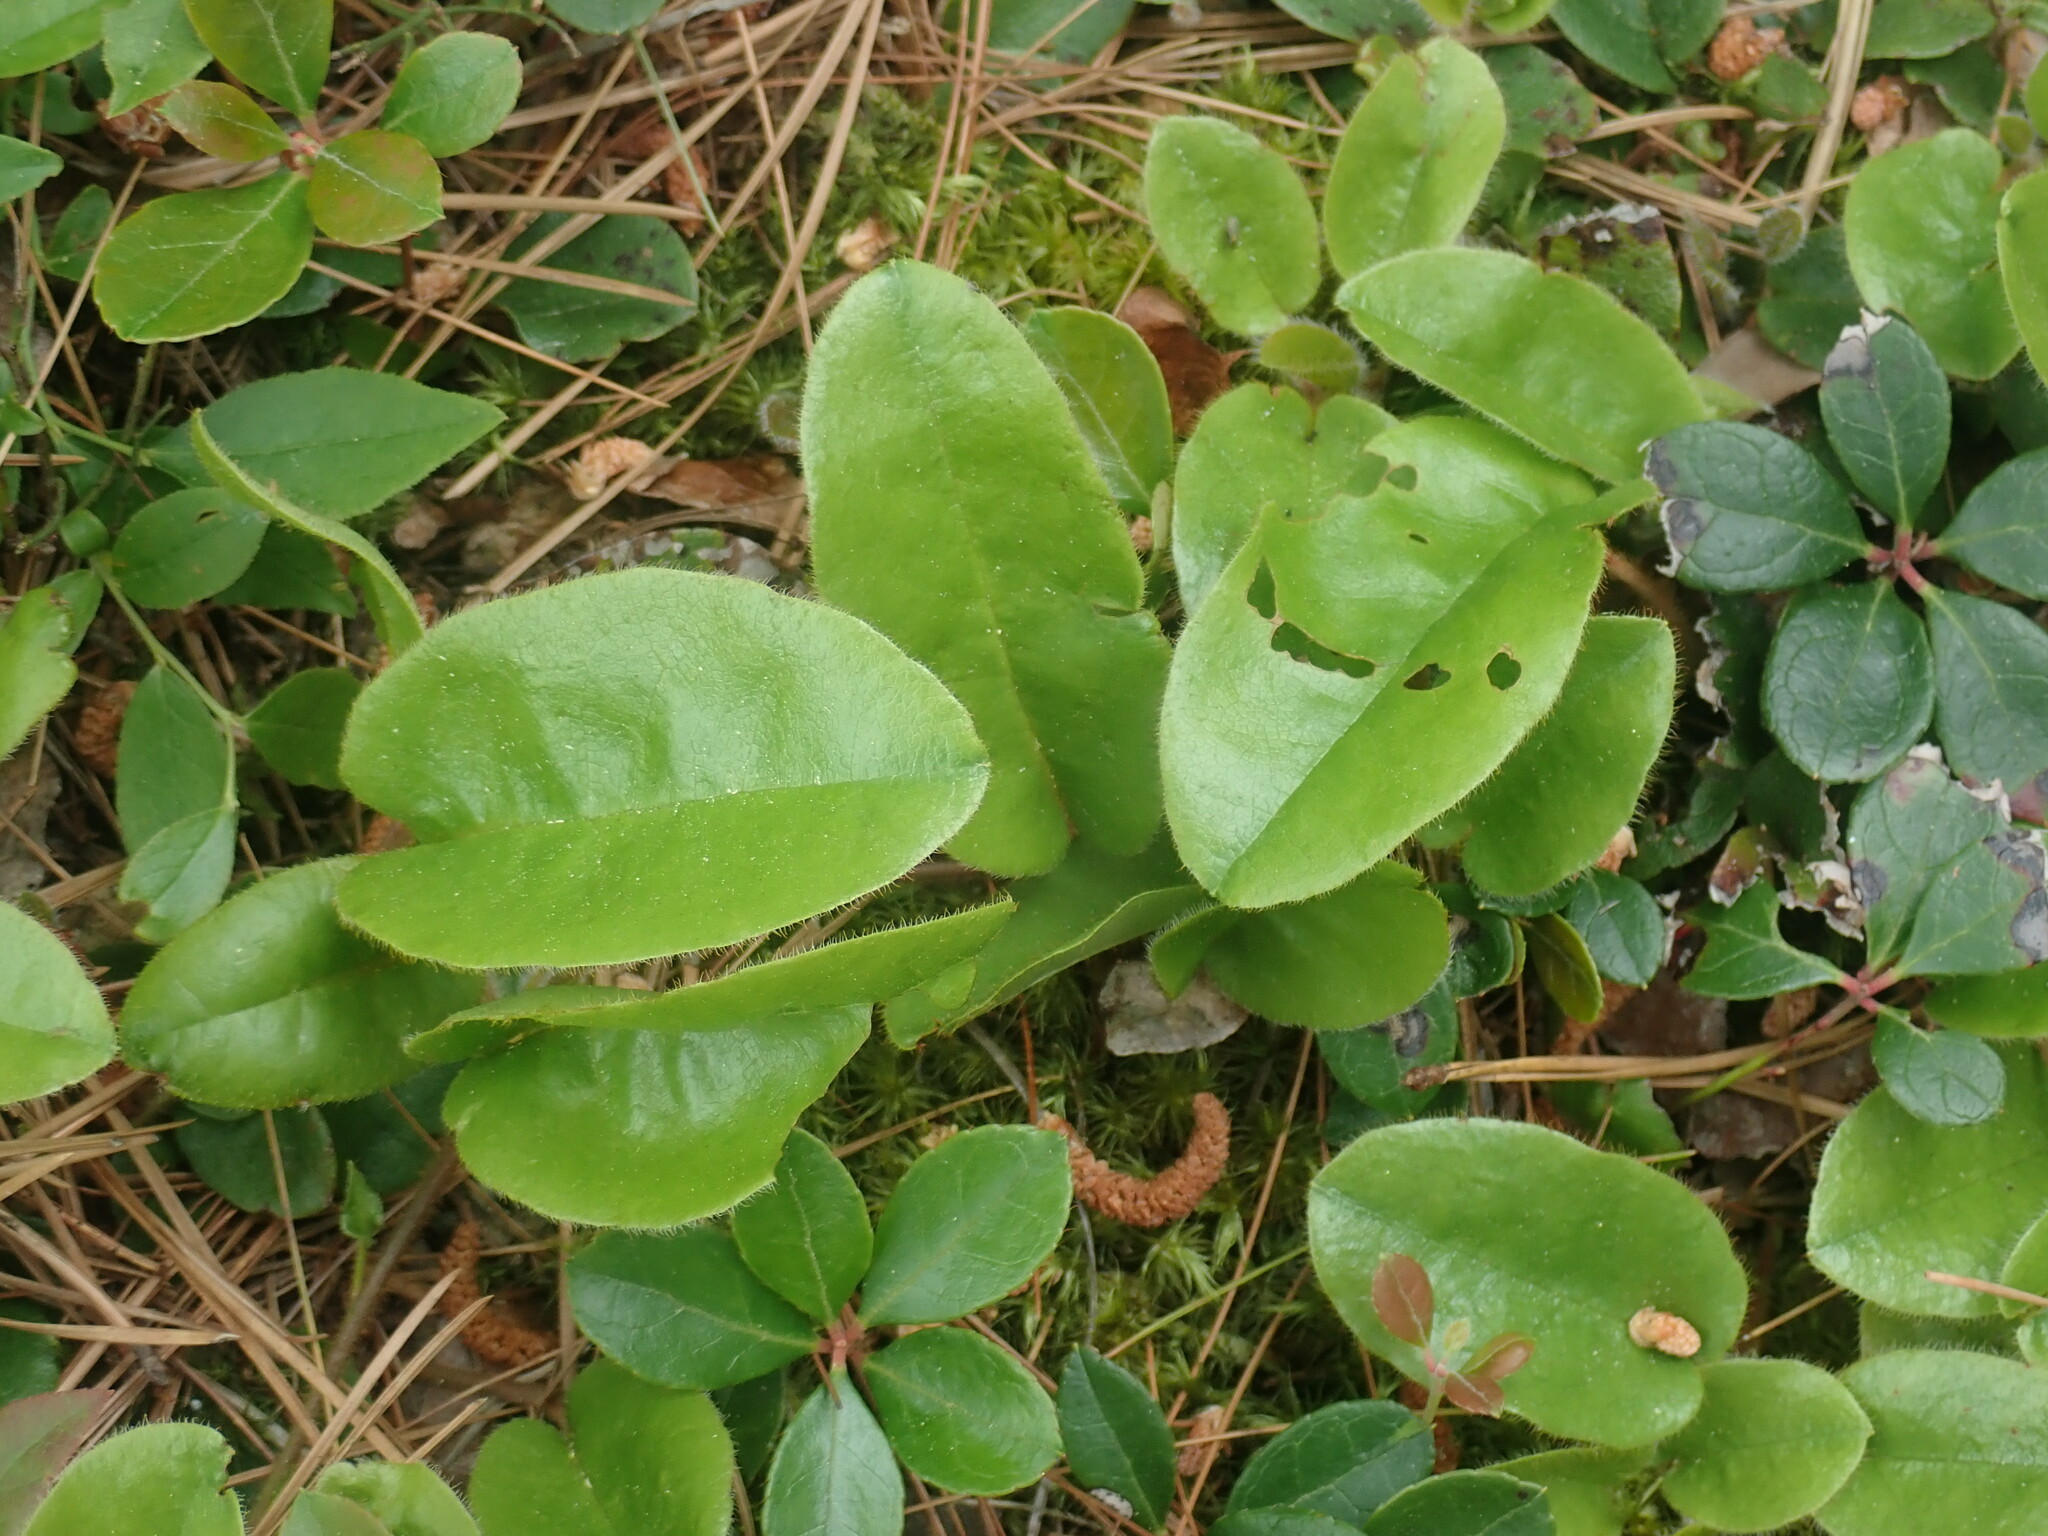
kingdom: Plantae
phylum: Tracheophyta
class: Magnoliopsida
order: Ericales
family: Ericaceae
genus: Epigaea
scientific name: Epigaea repens
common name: Gravelroot
